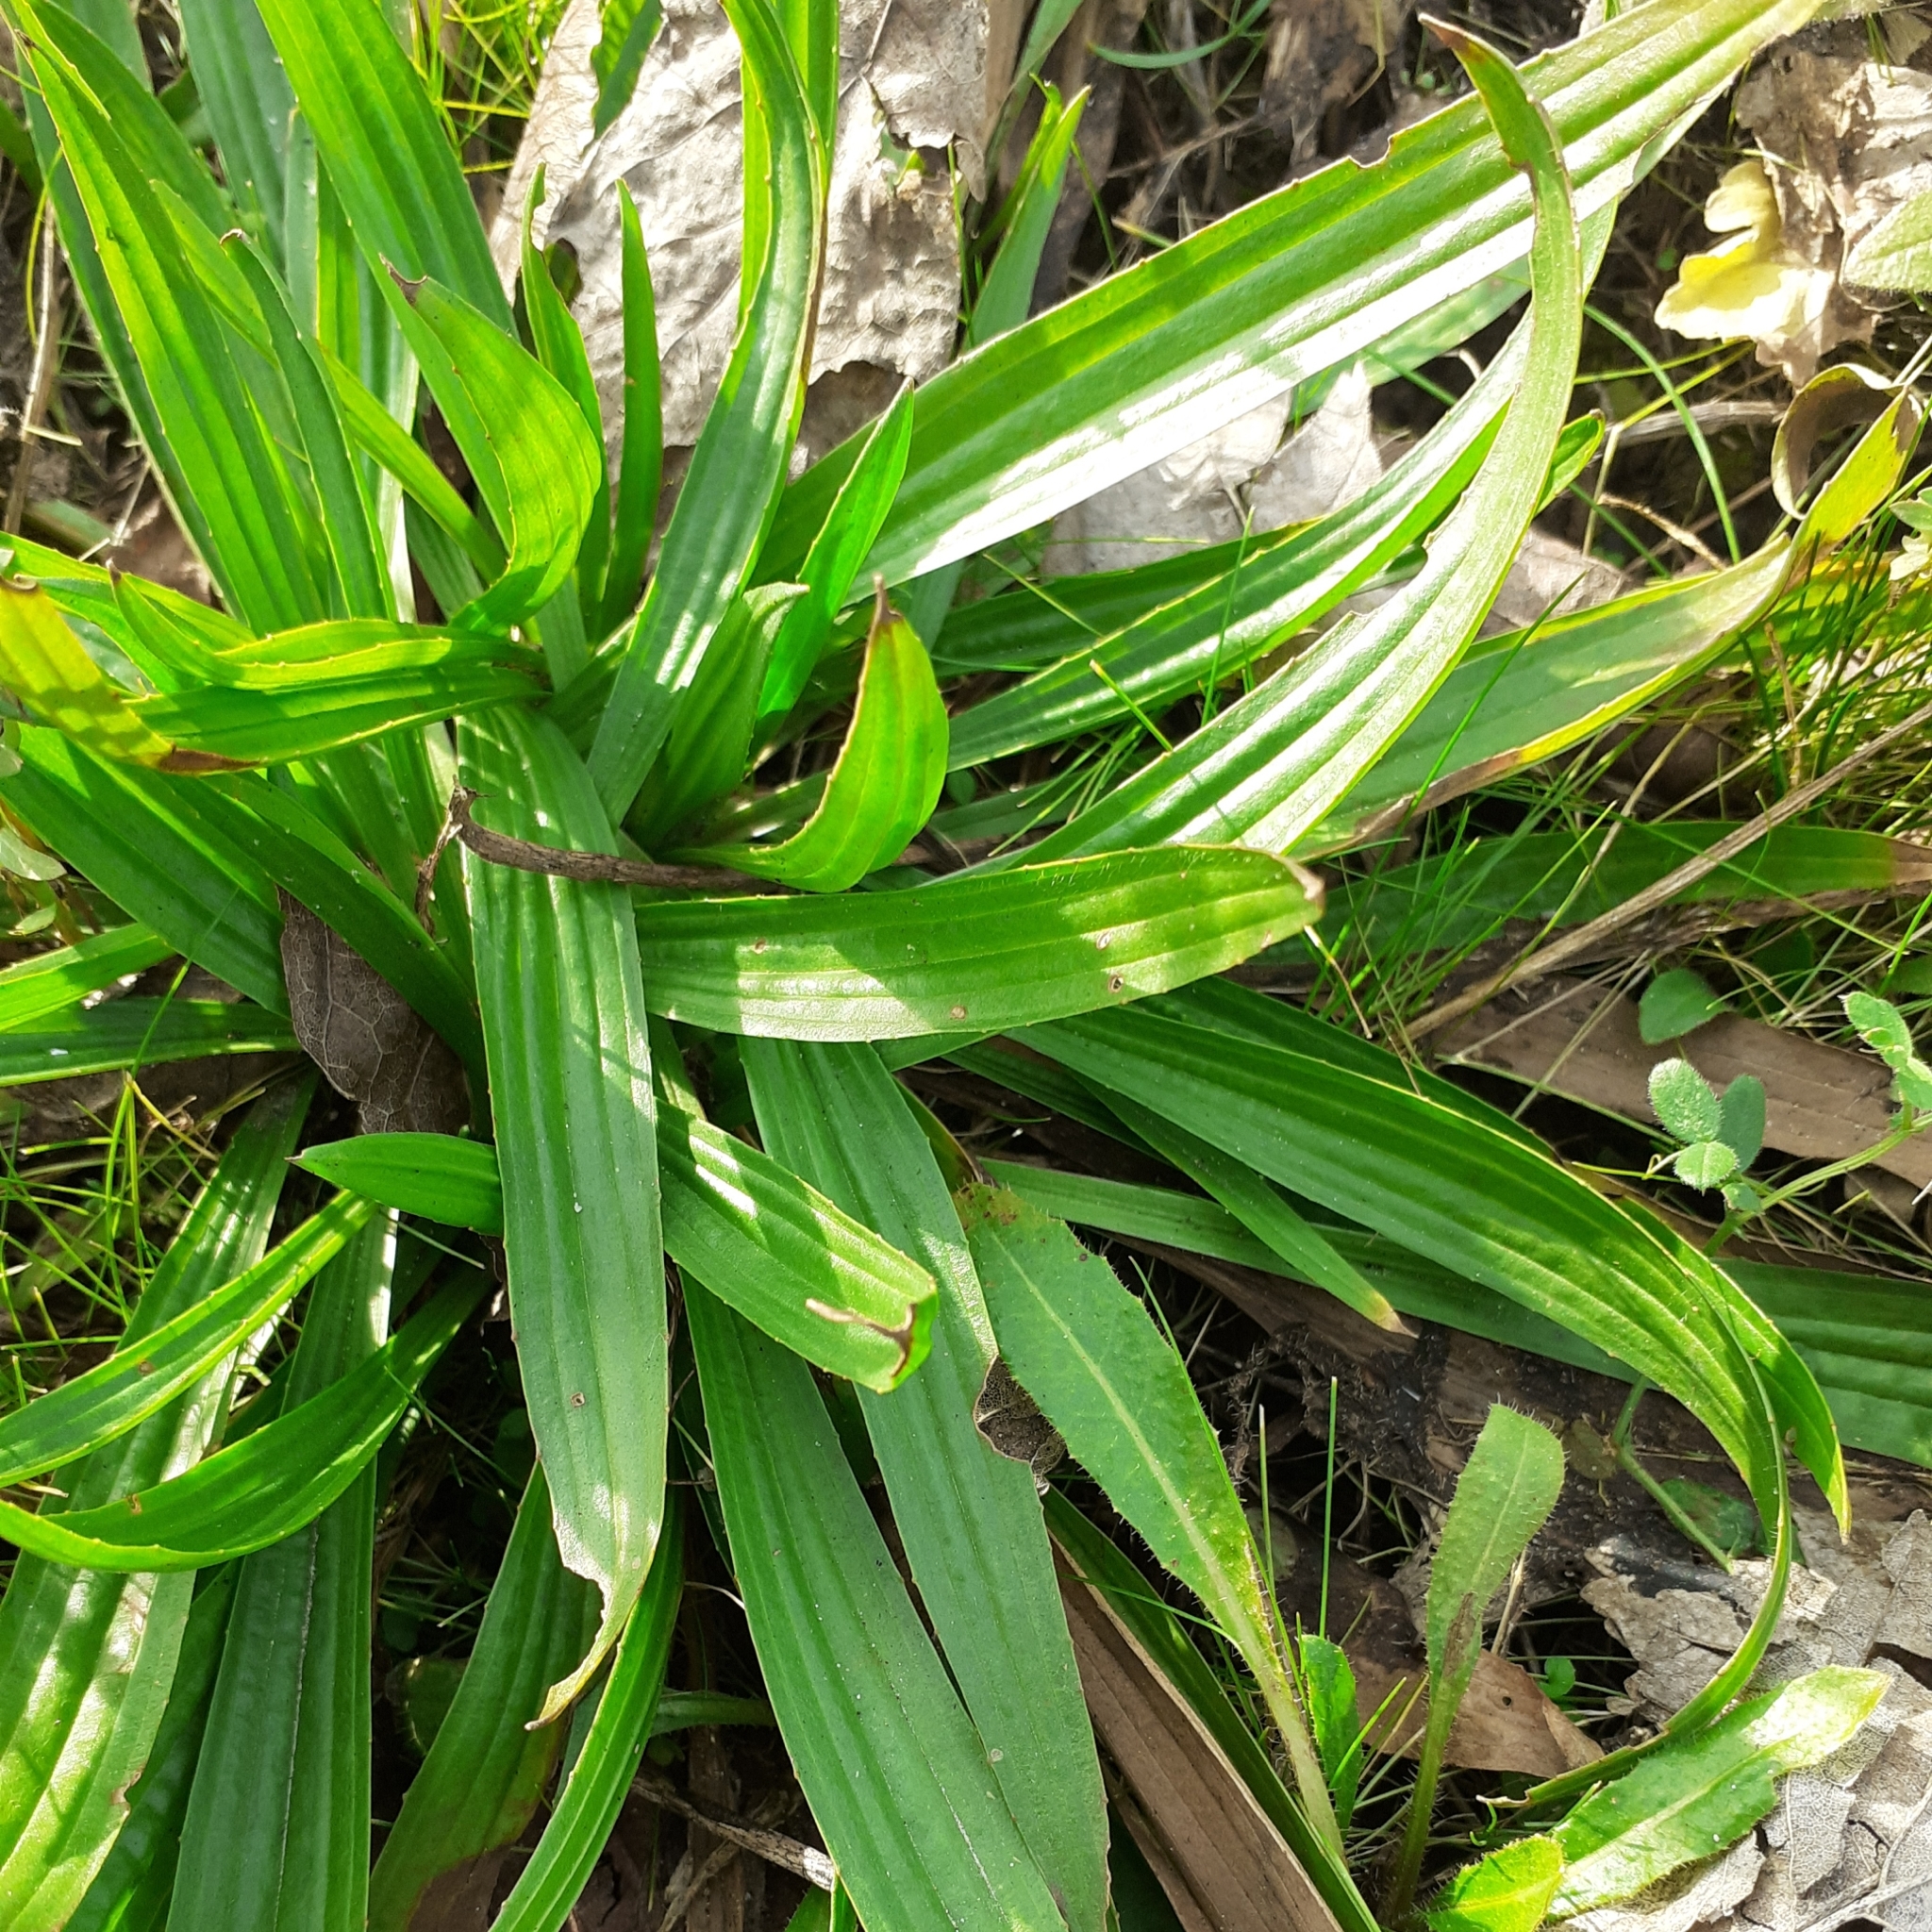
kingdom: Plantae
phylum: Tracheophyta
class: Magnoliopsida
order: Lamiales
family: Plantaginaceae
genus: Plantago
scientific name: Plantago lanceolata
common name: Ribwort plantain
